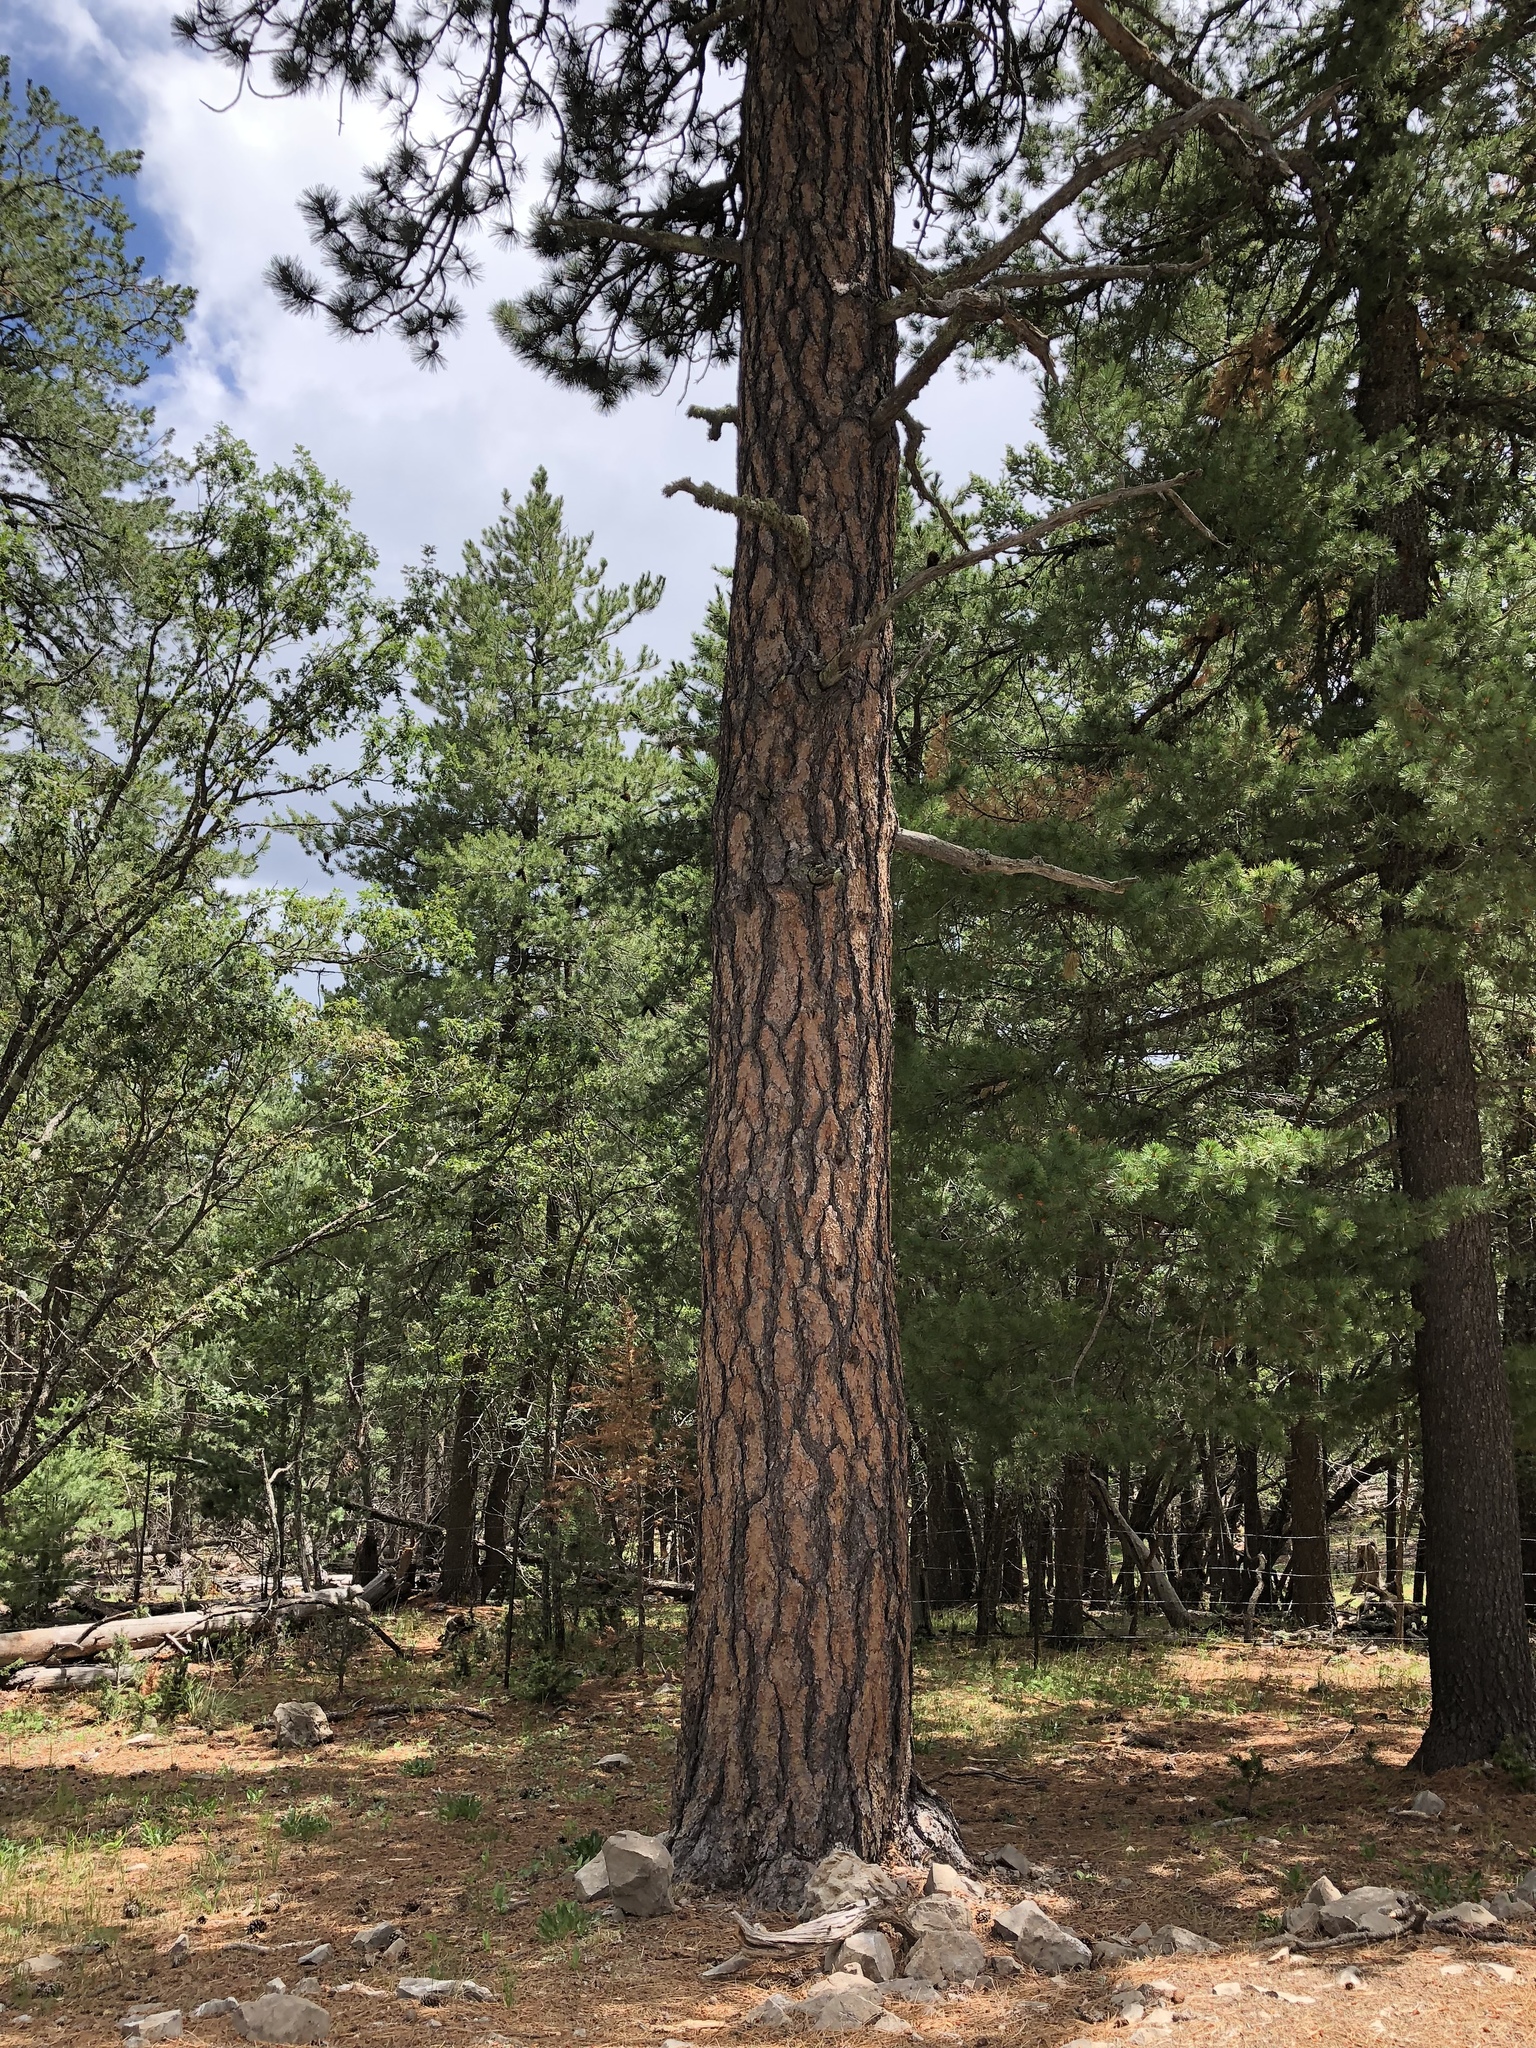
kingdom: Plantae
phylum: Tracheophyta
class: Pinopsida
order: Pinales
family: Pinaceae
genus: Pinus
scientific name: Pinus ponderosa
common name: Western yellow-pine
